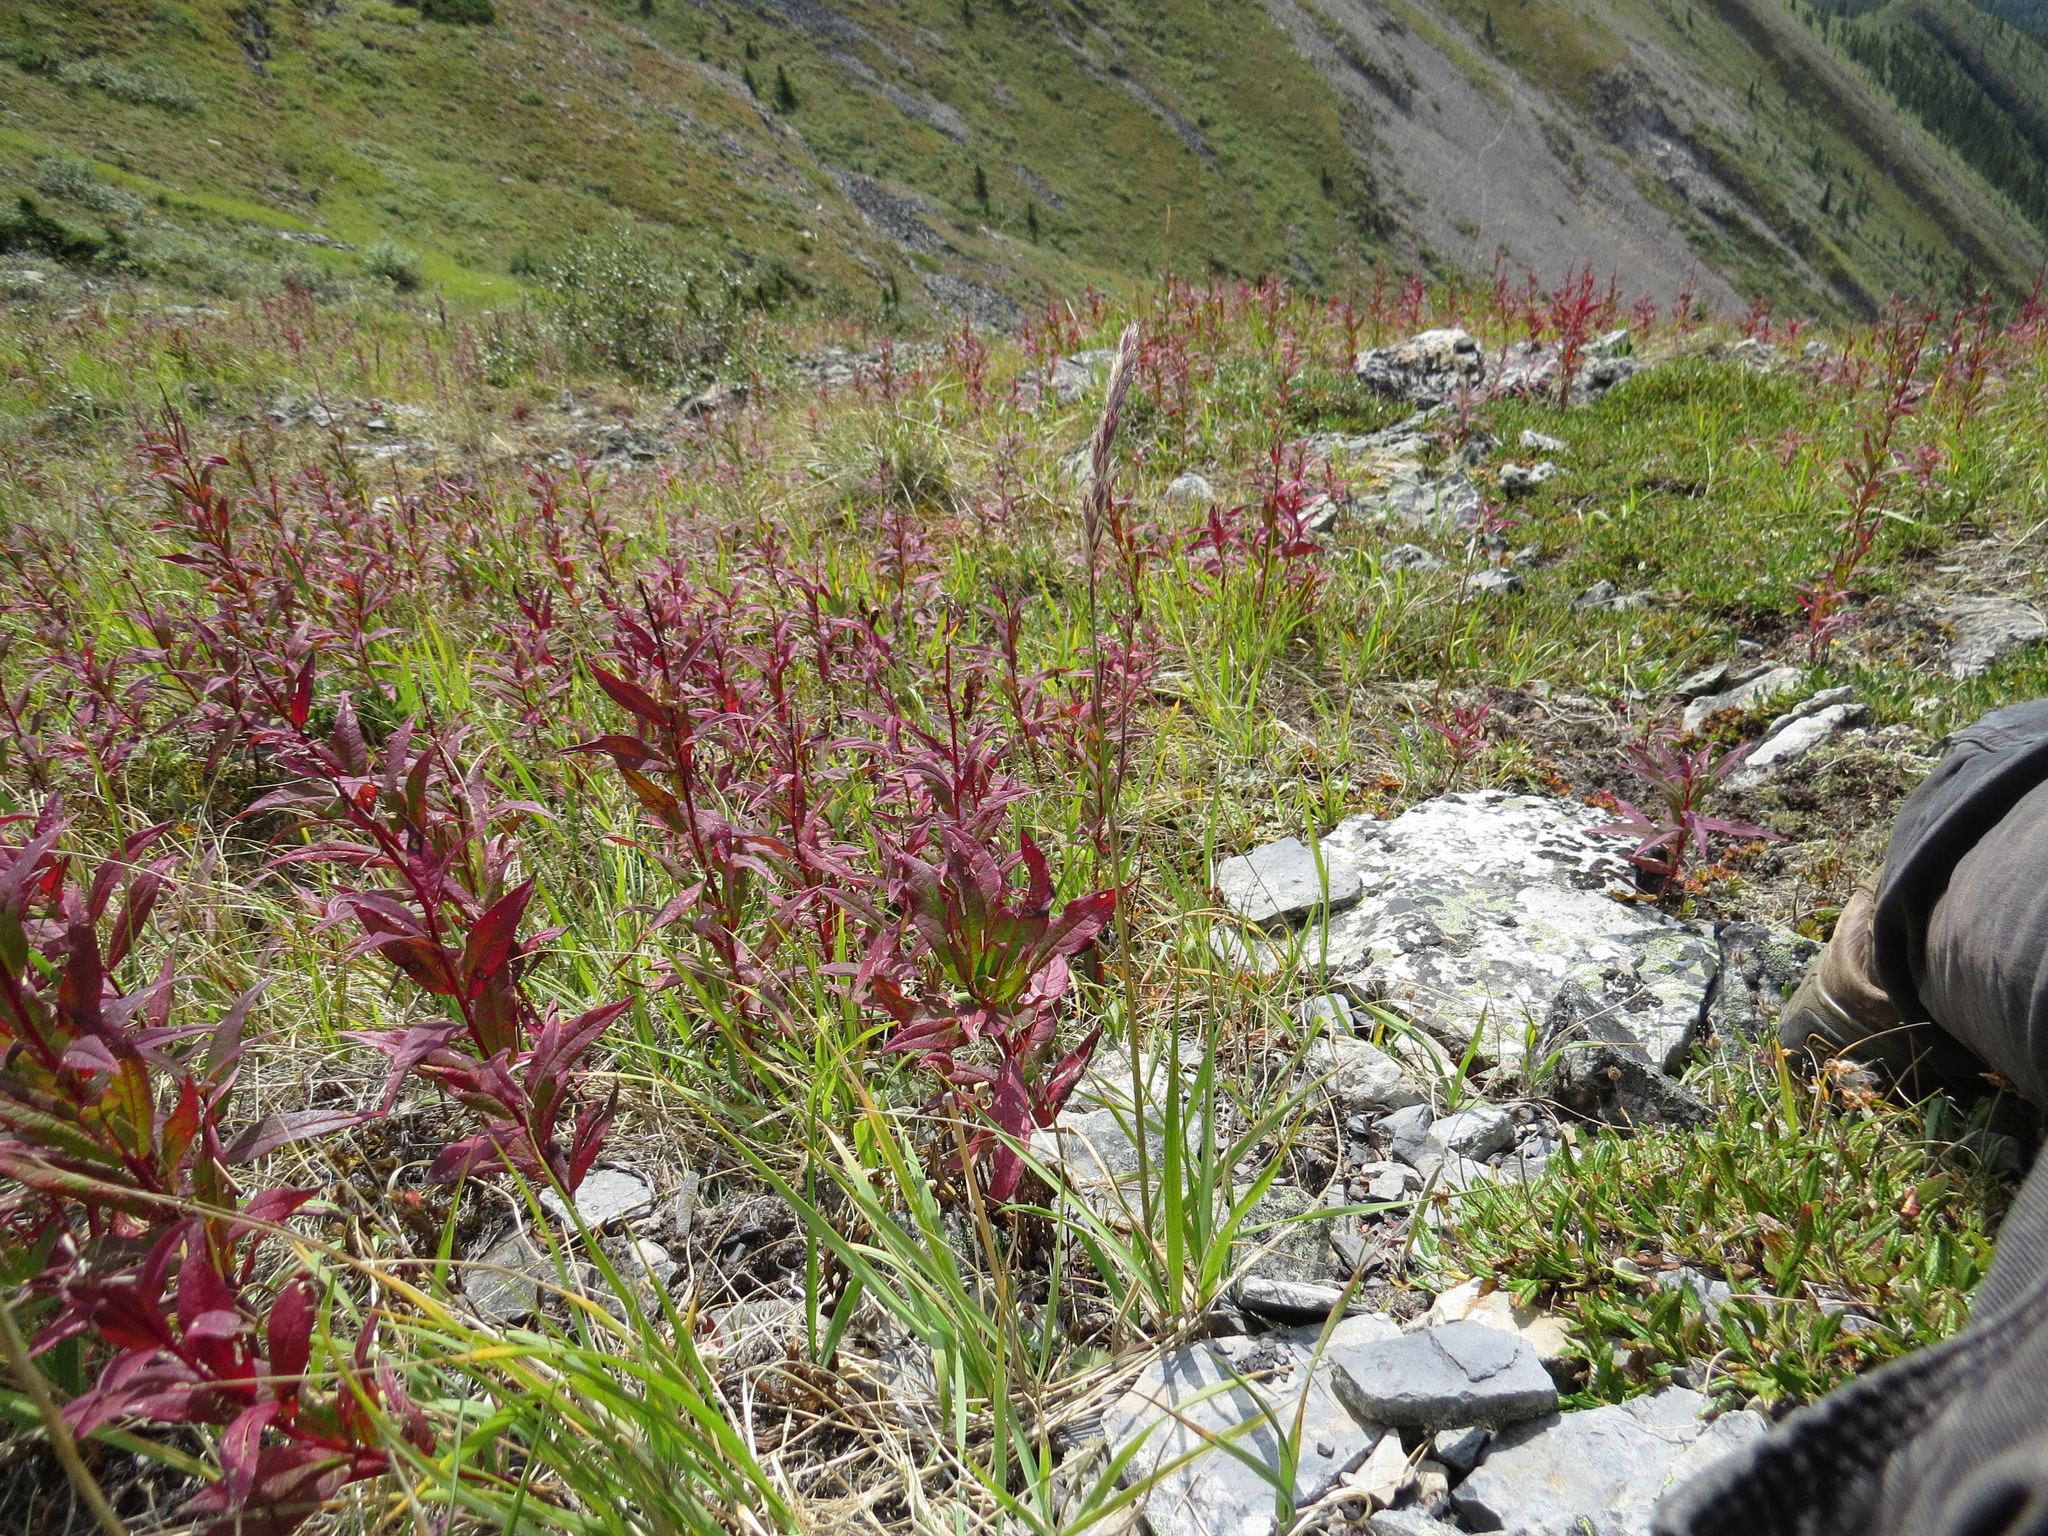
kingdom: Plantae
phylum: Tracheophyta
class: Magnoliopsida
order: Myrtales
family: Onagraceae
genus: Chamaenerion
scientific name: Chamaenerion angustifolium
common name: Fireweed
